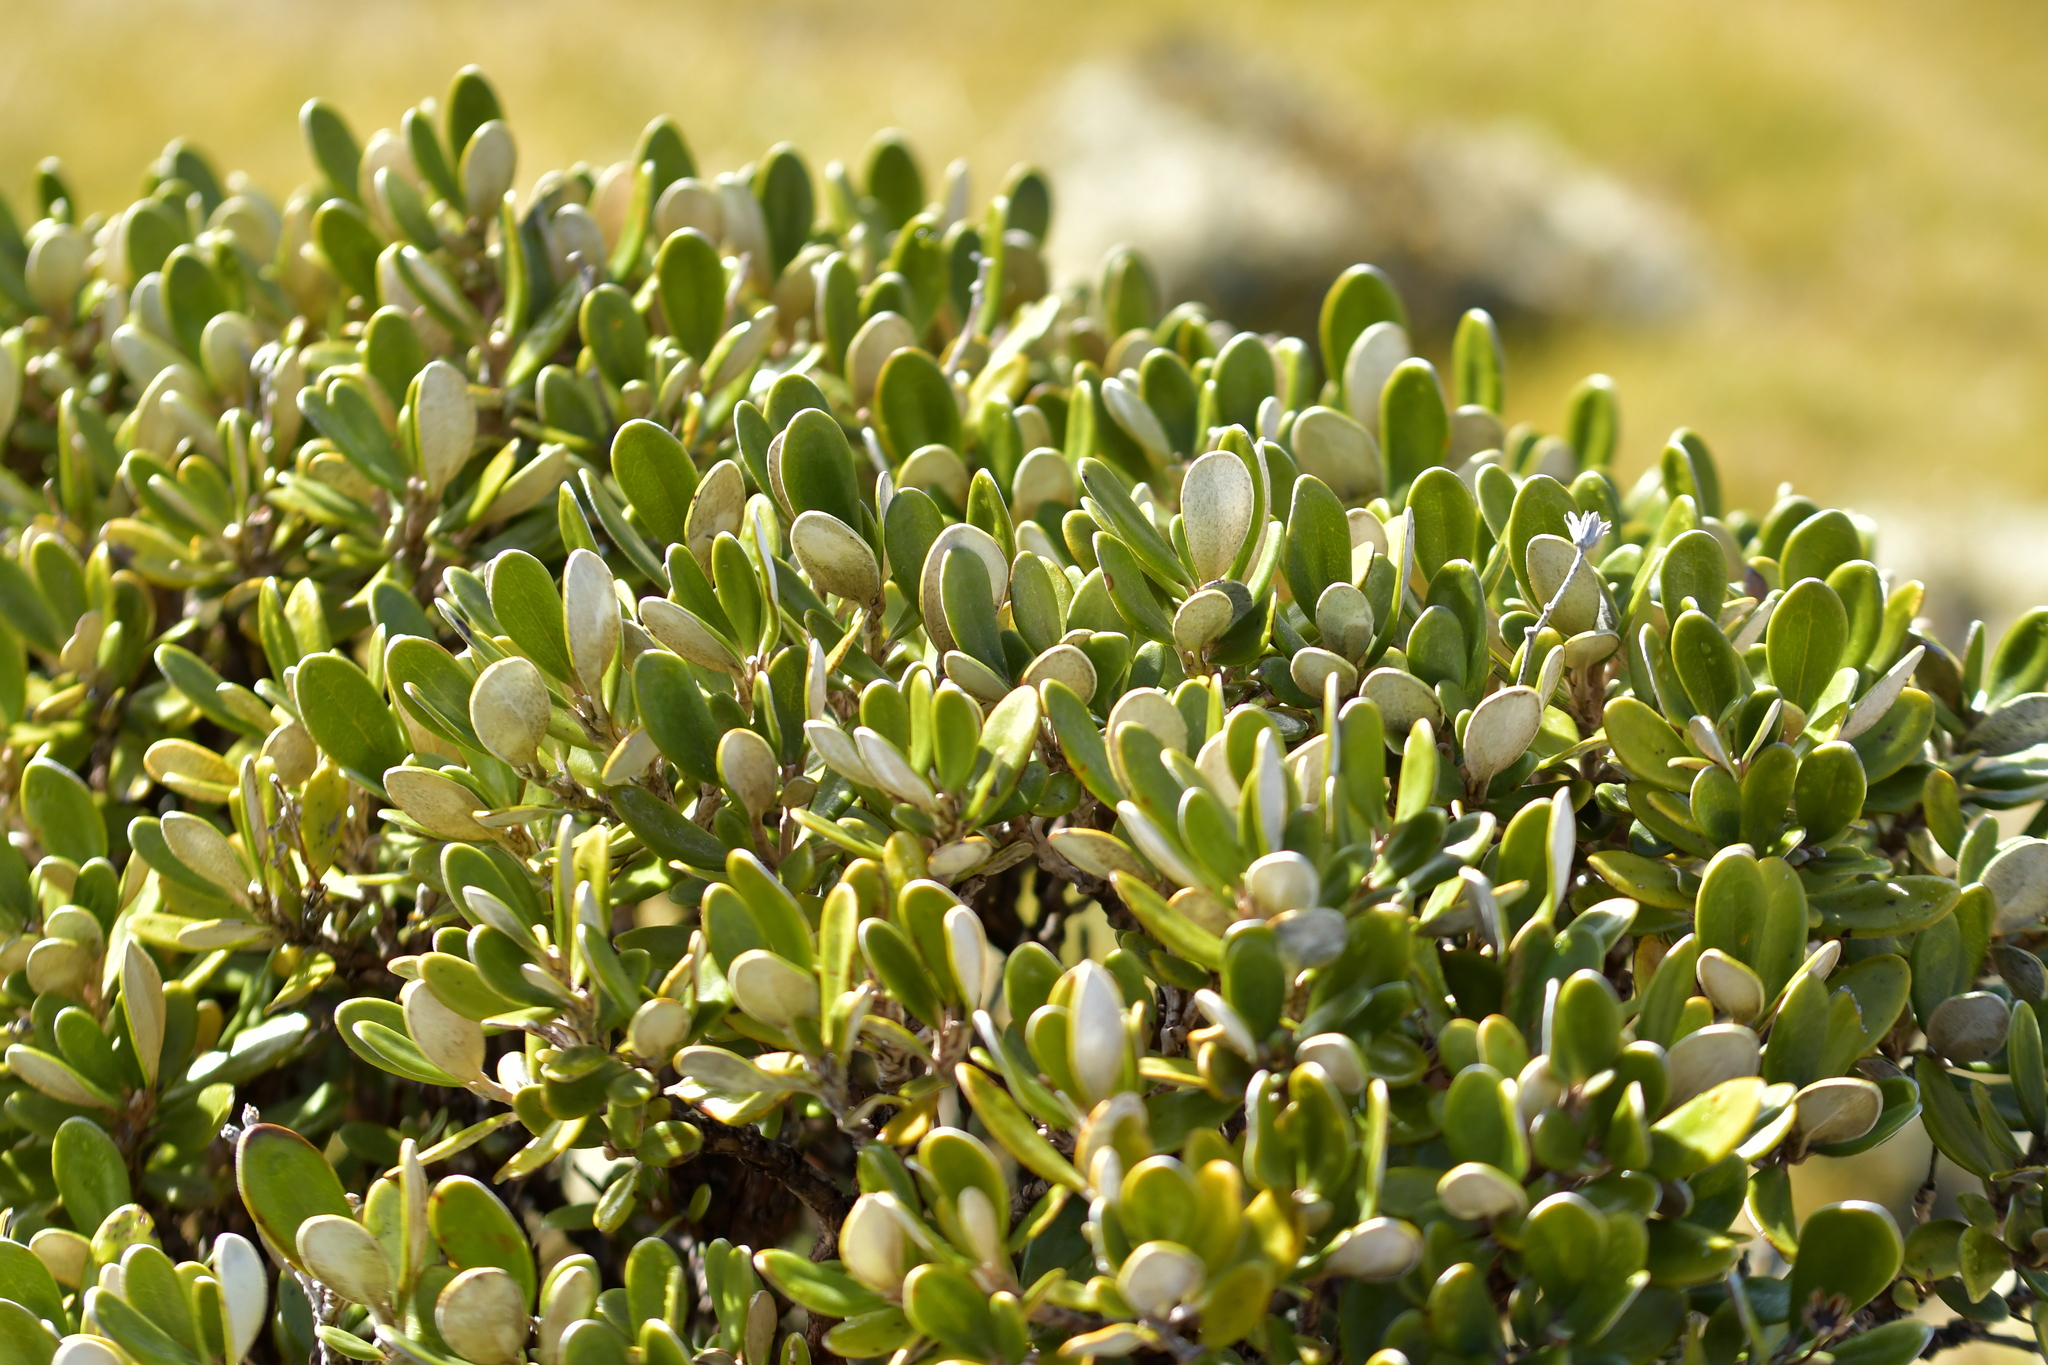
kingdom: Plantae
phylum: Tracheophyta
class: Magnoliopsida
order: Asterales
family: Asteraceae
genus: Brachyglottis
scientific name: Brachyglottis bidwillii
